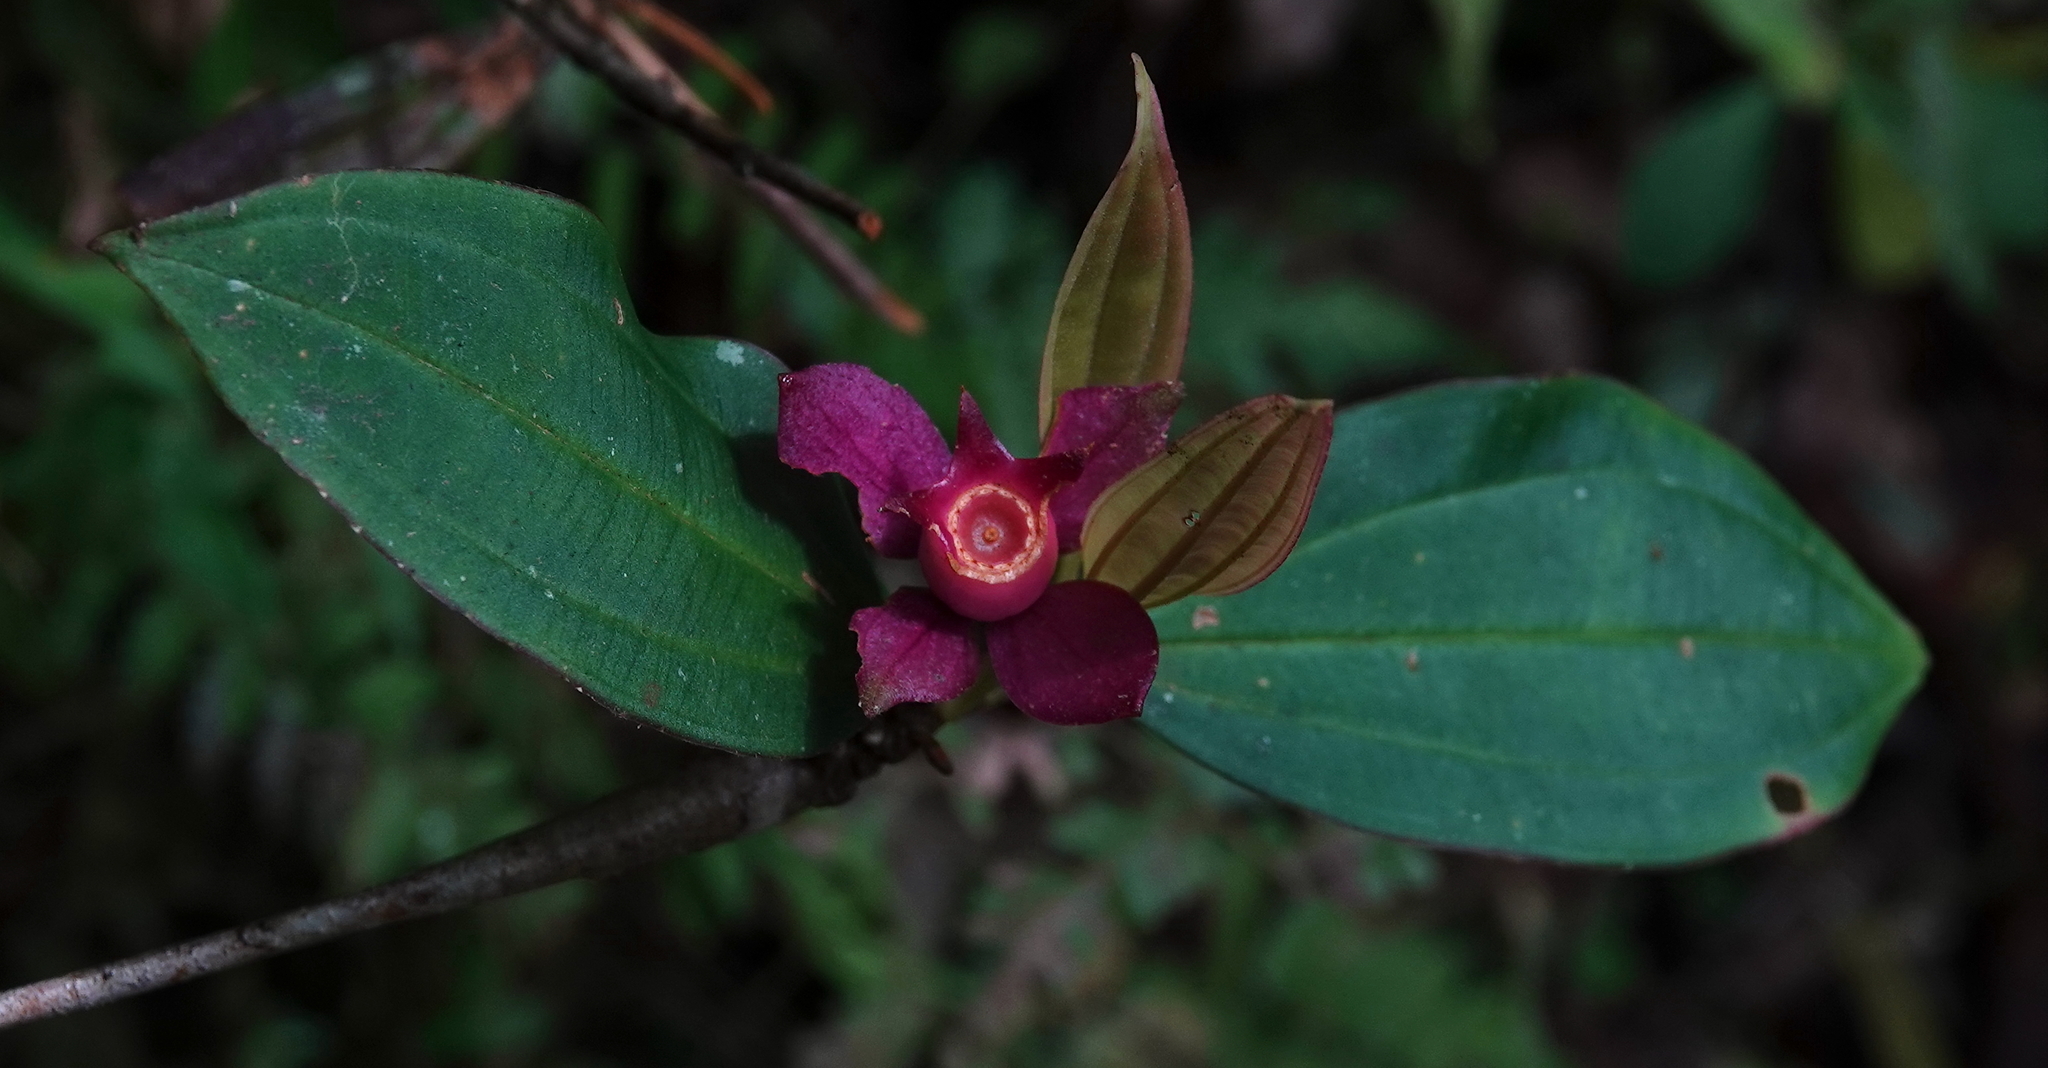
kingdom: Plantae
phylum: Tracheophyta
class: Magnoliopsida
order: Myrtales
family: Melastomataceae
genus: Blakea
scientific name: Blakea podagrica
